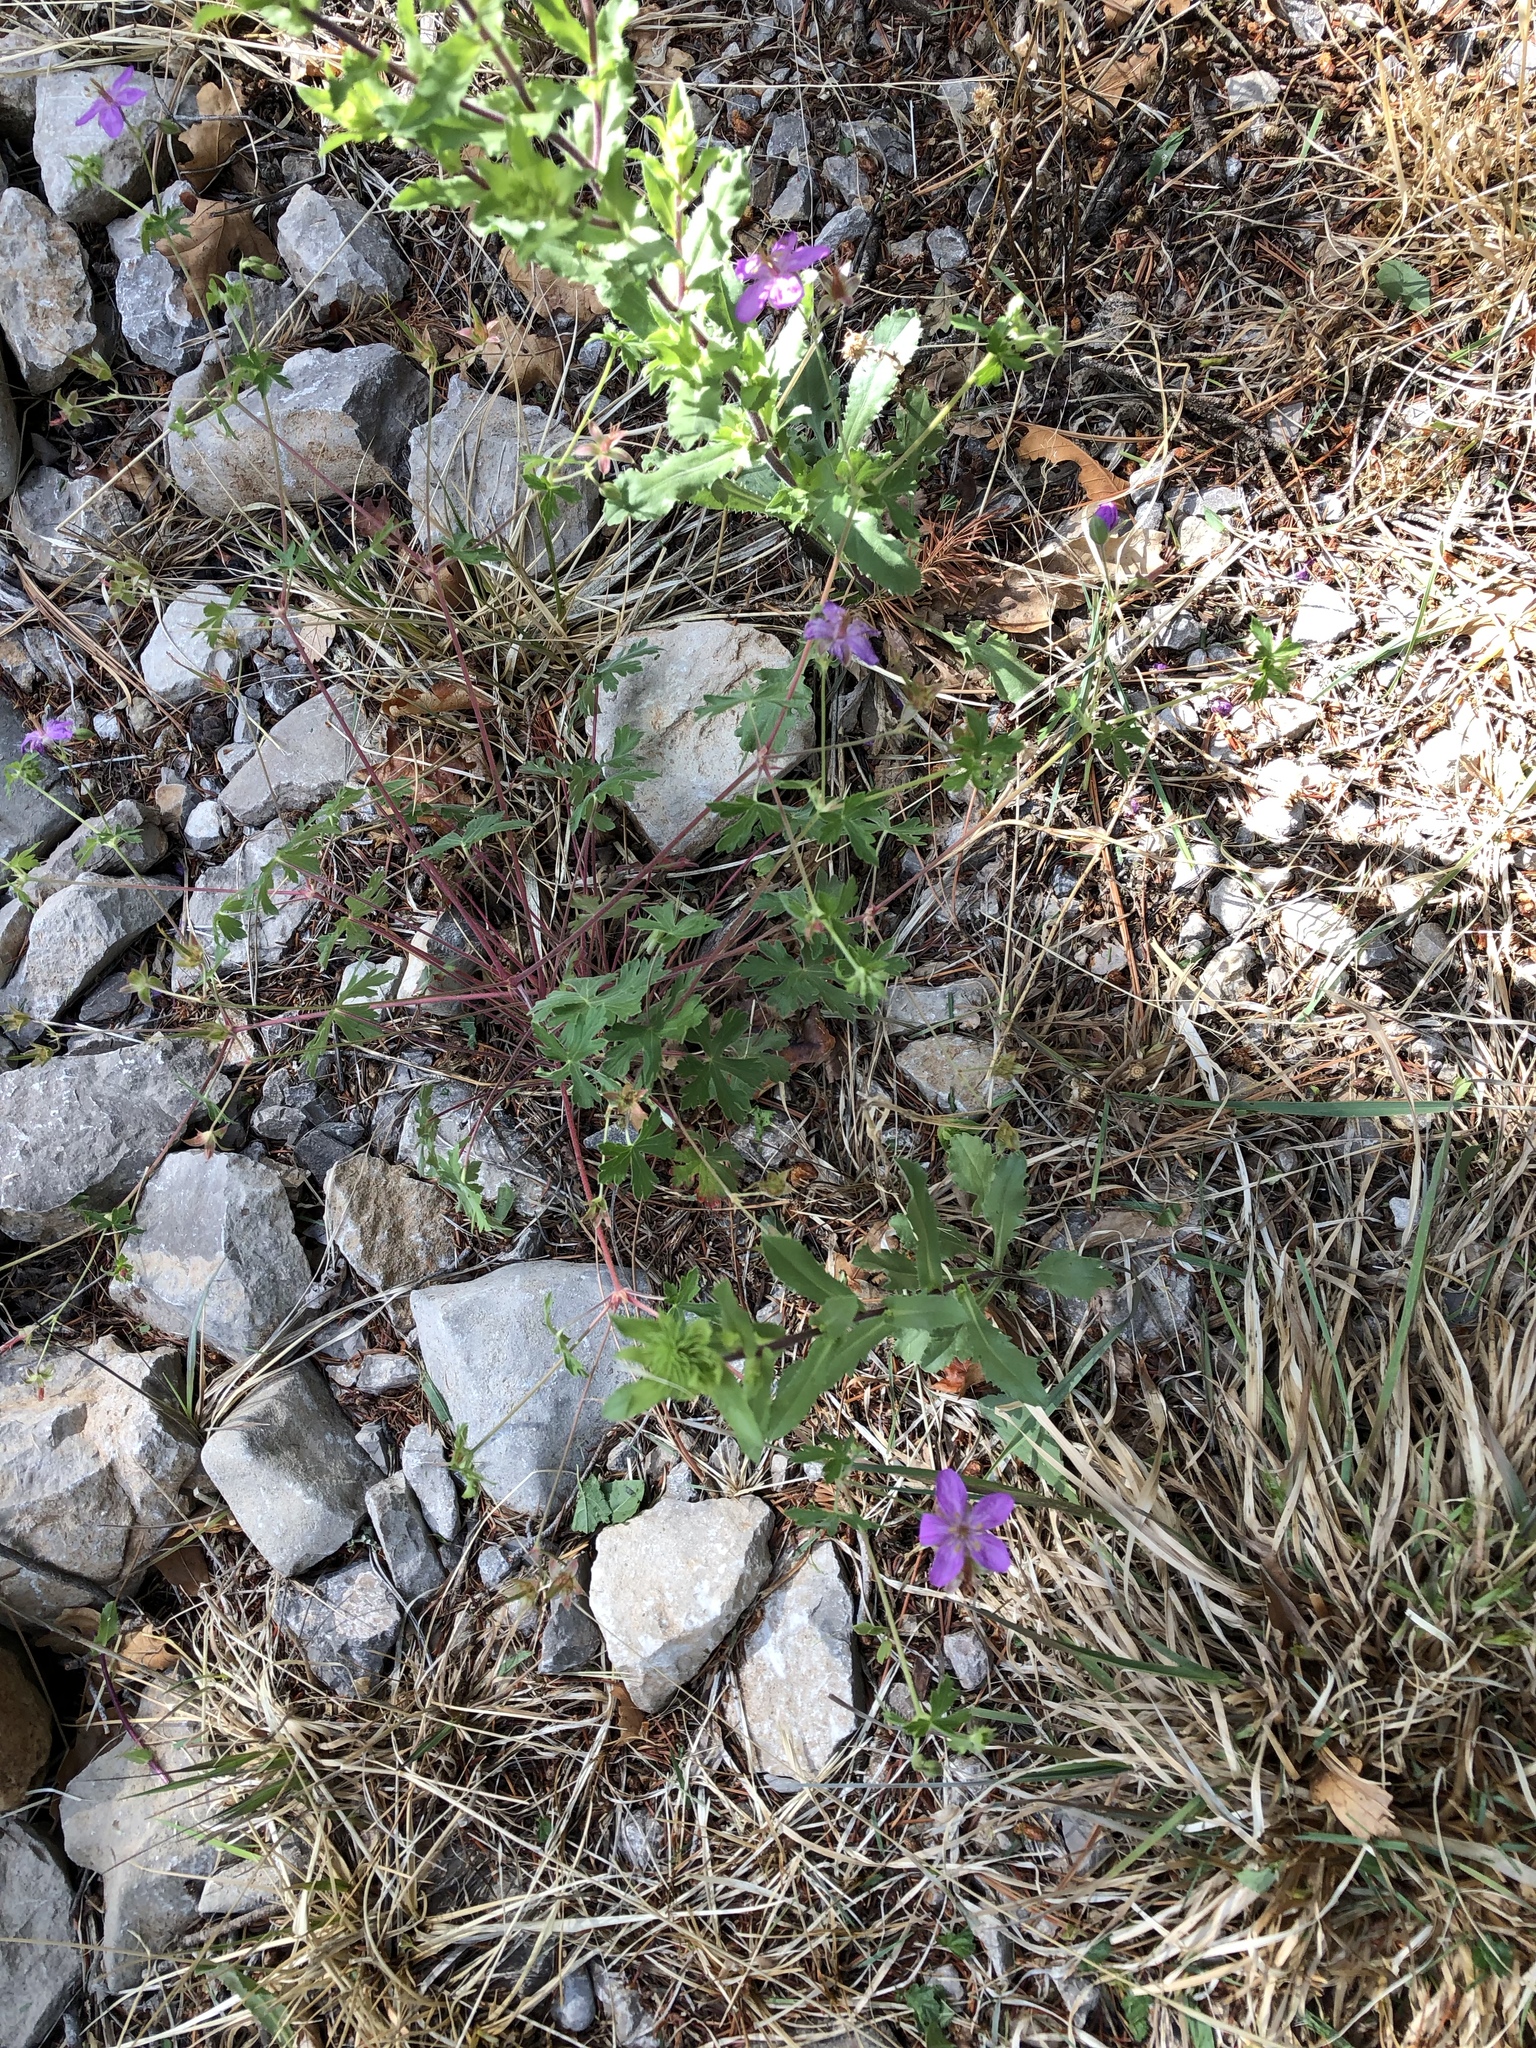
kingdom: Plantae
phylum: Tracheophyta
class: Magnoliopsida
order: Geraniales
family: Geraniaceae
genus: Geranium
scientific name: Geranium caespitosum
